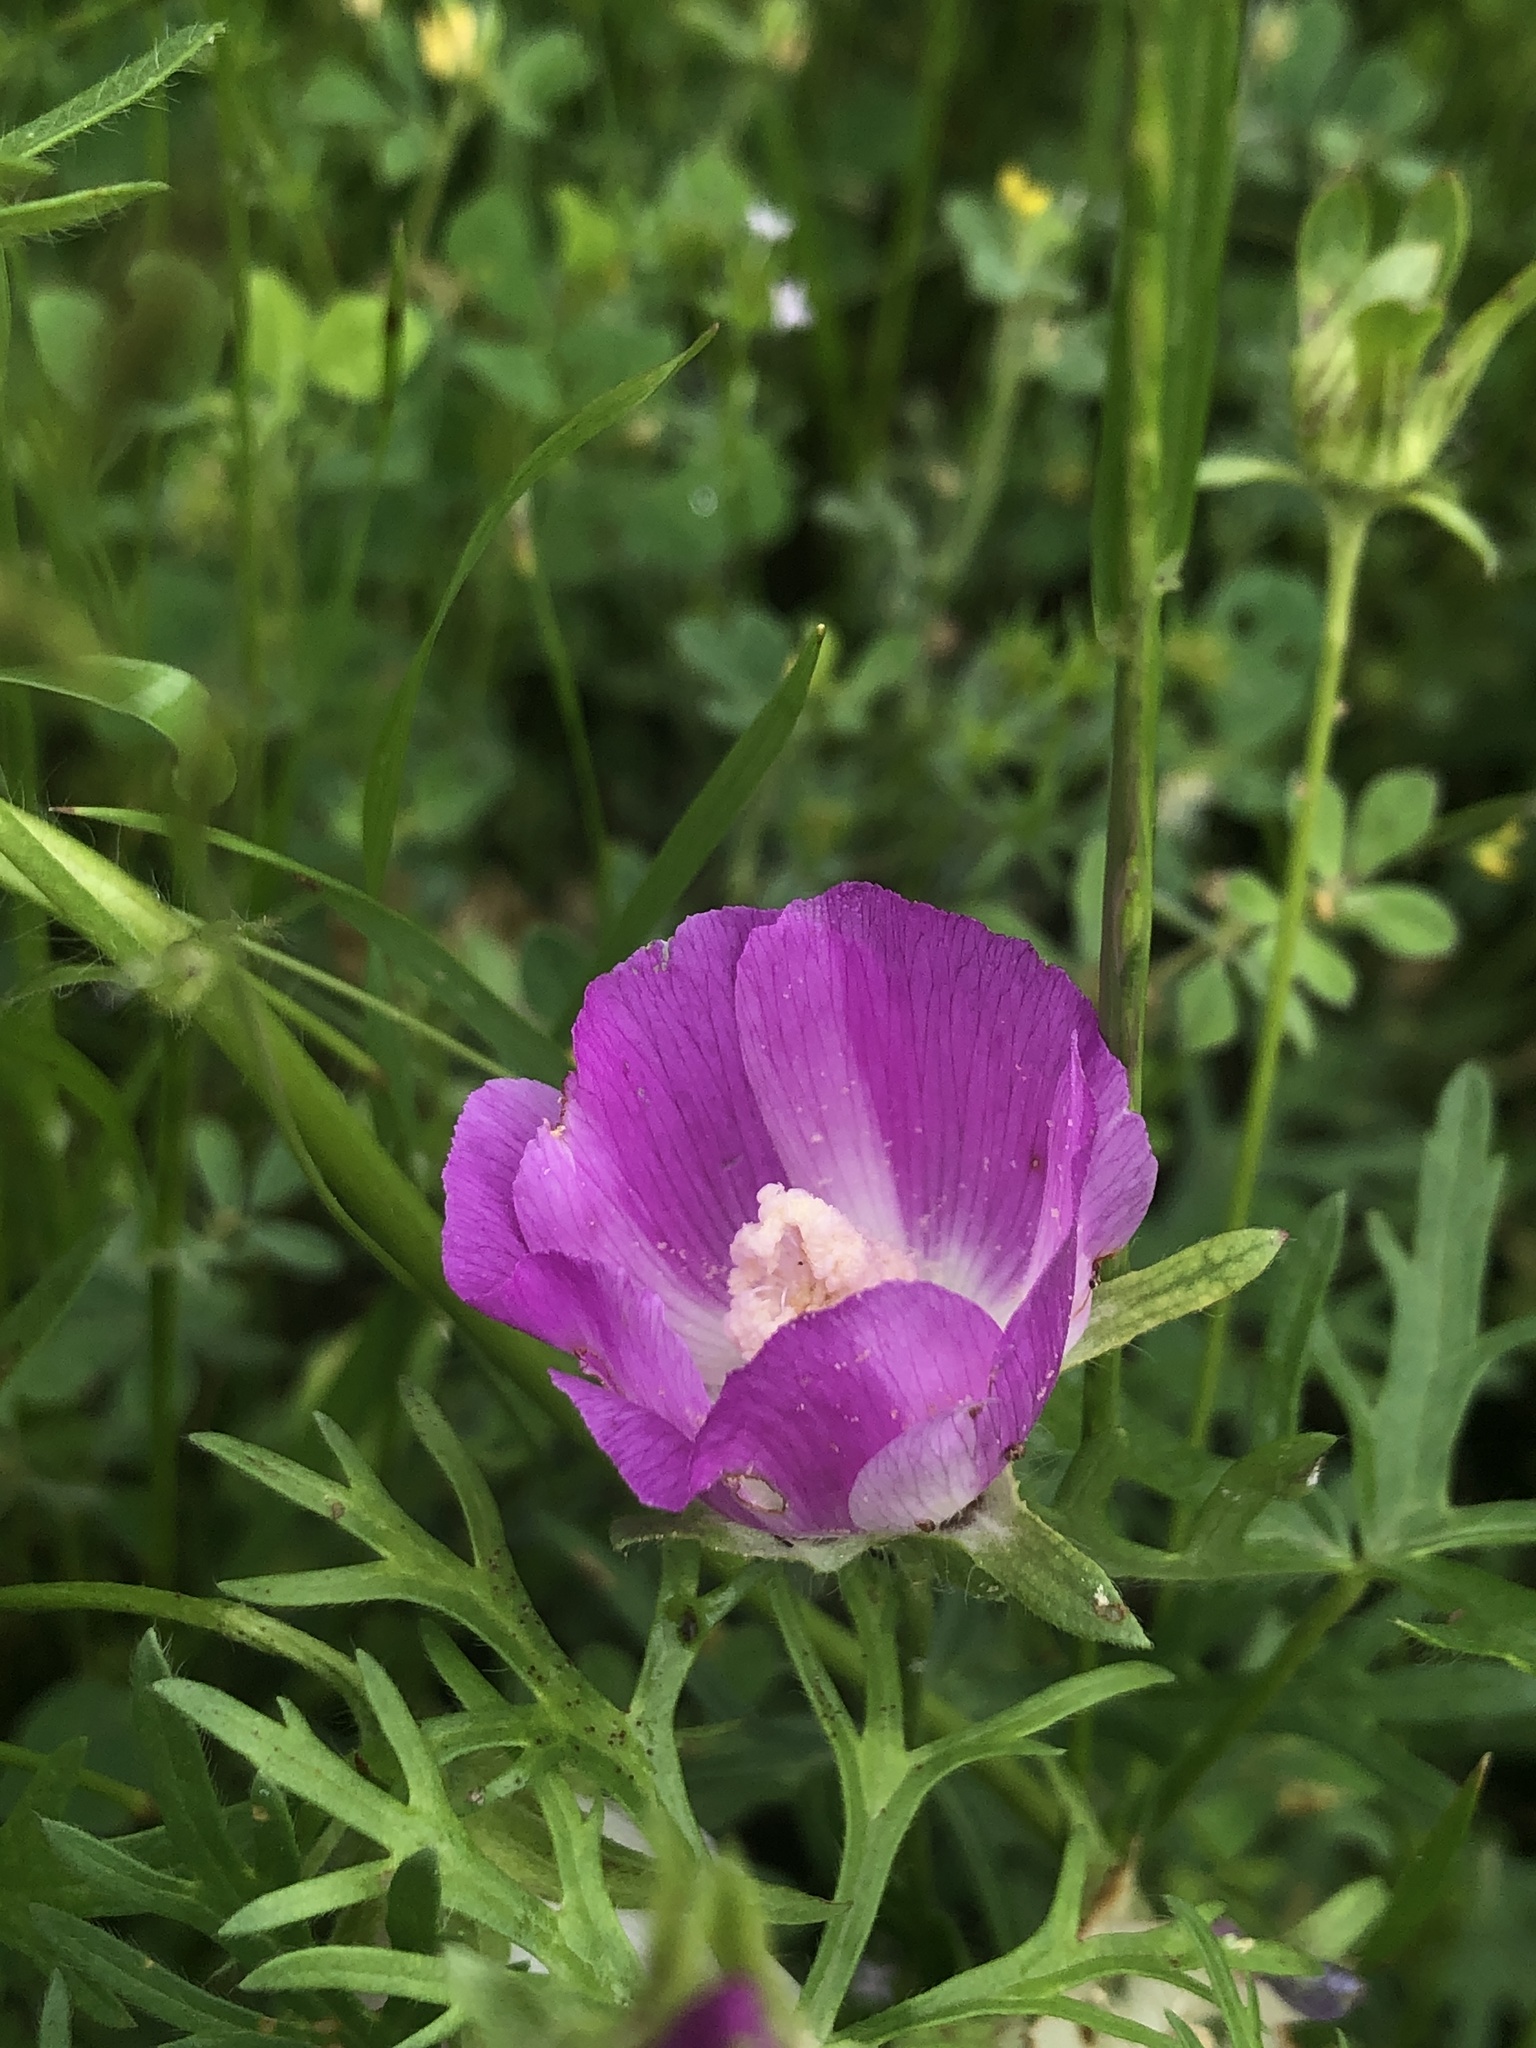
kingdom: Plantae
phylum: Tracheophyta
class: Magnoliopsida
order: Malvales
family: Malvaceae
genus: Callirhoe
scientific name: Callirhoe involucrata
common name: Purple poppy-mallow
